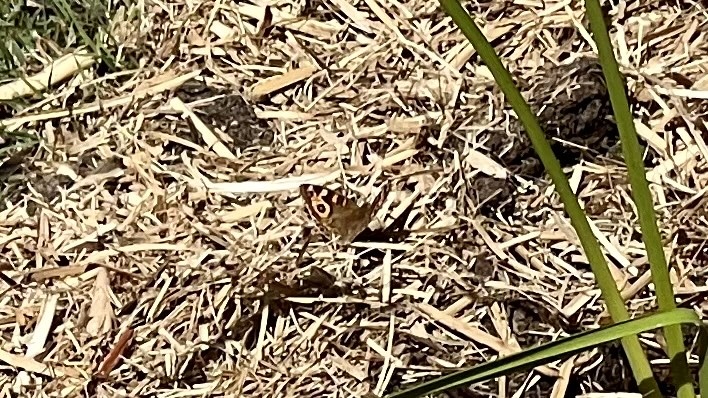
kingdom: Animalia
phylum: Arthropoda
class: Insecta
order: Lepidoptera
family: Nymphalidae
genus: Junonia
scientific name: Junonia villida
